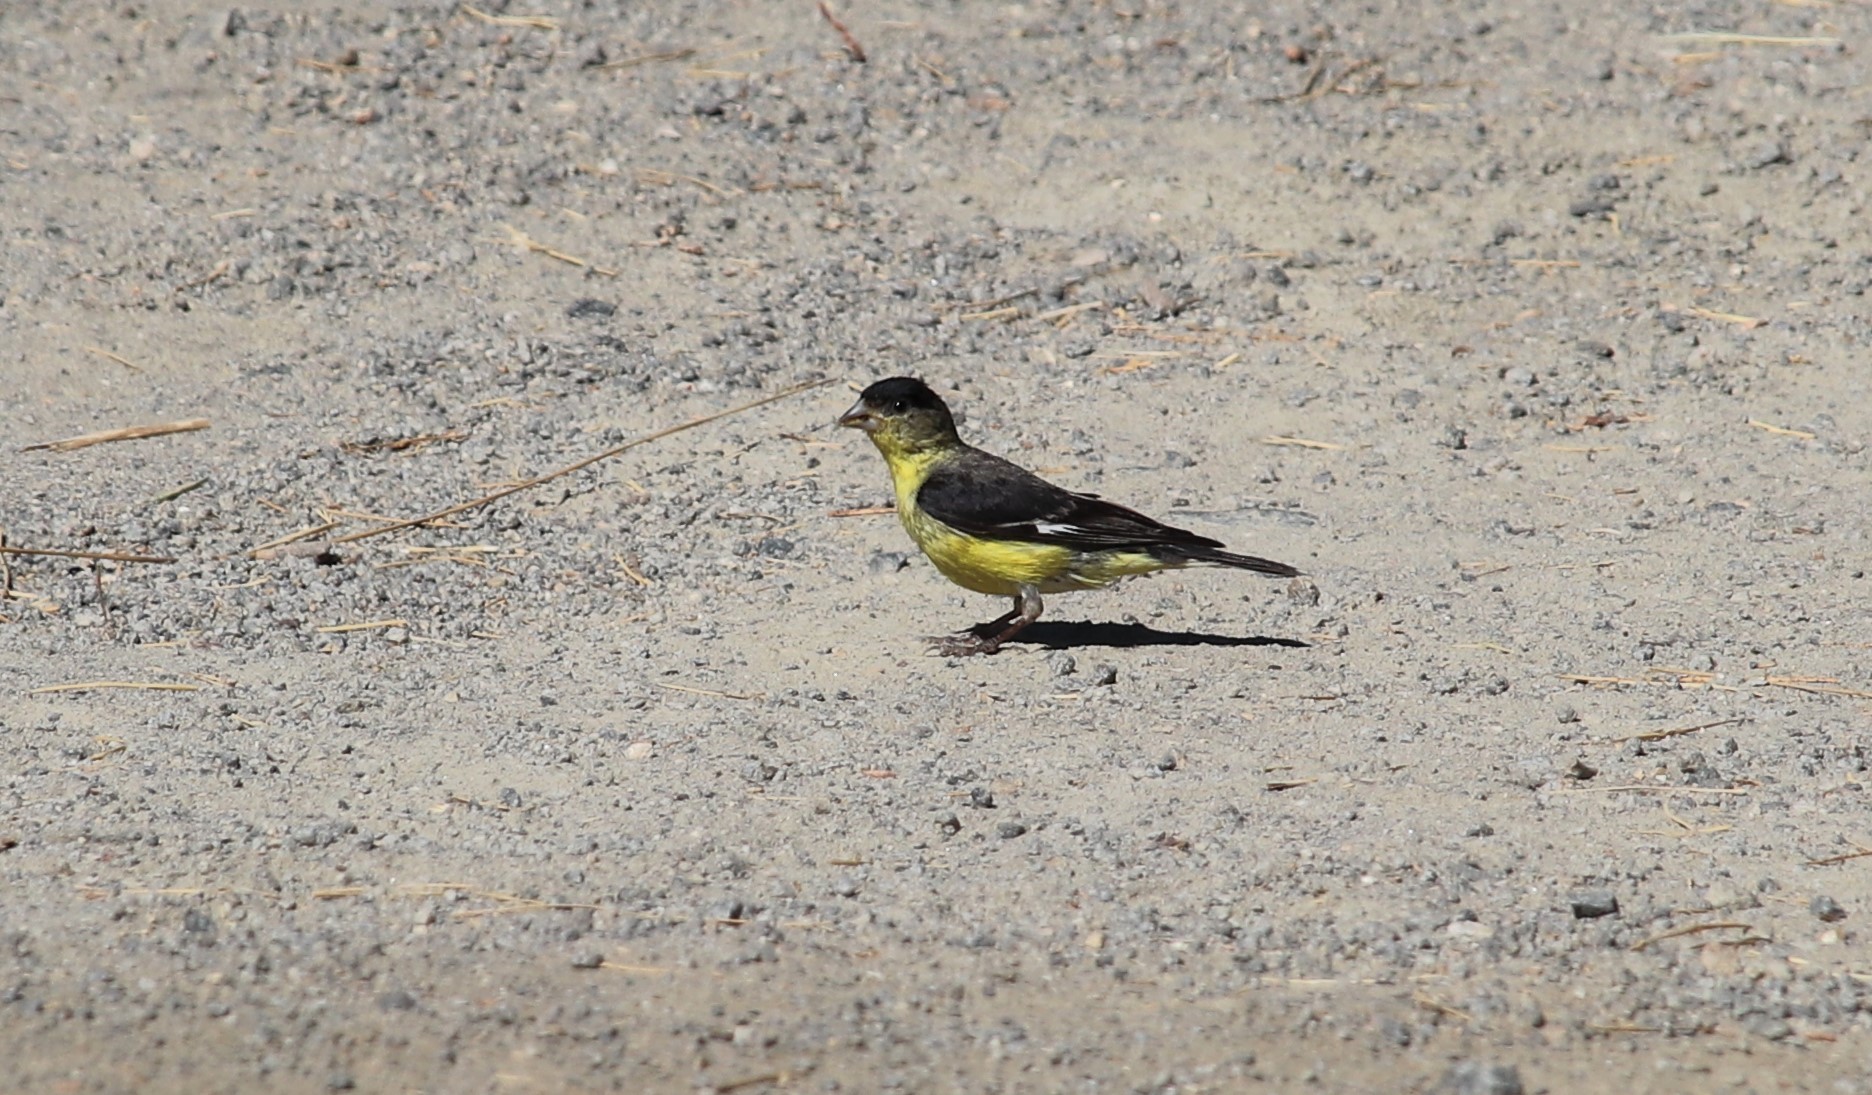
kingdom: Animalia
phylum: Chordata
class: Aves
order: Passeriformes
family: Fringillidae
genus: Spinus
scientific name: Spinus psaltria
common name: Lesser goldfinch
